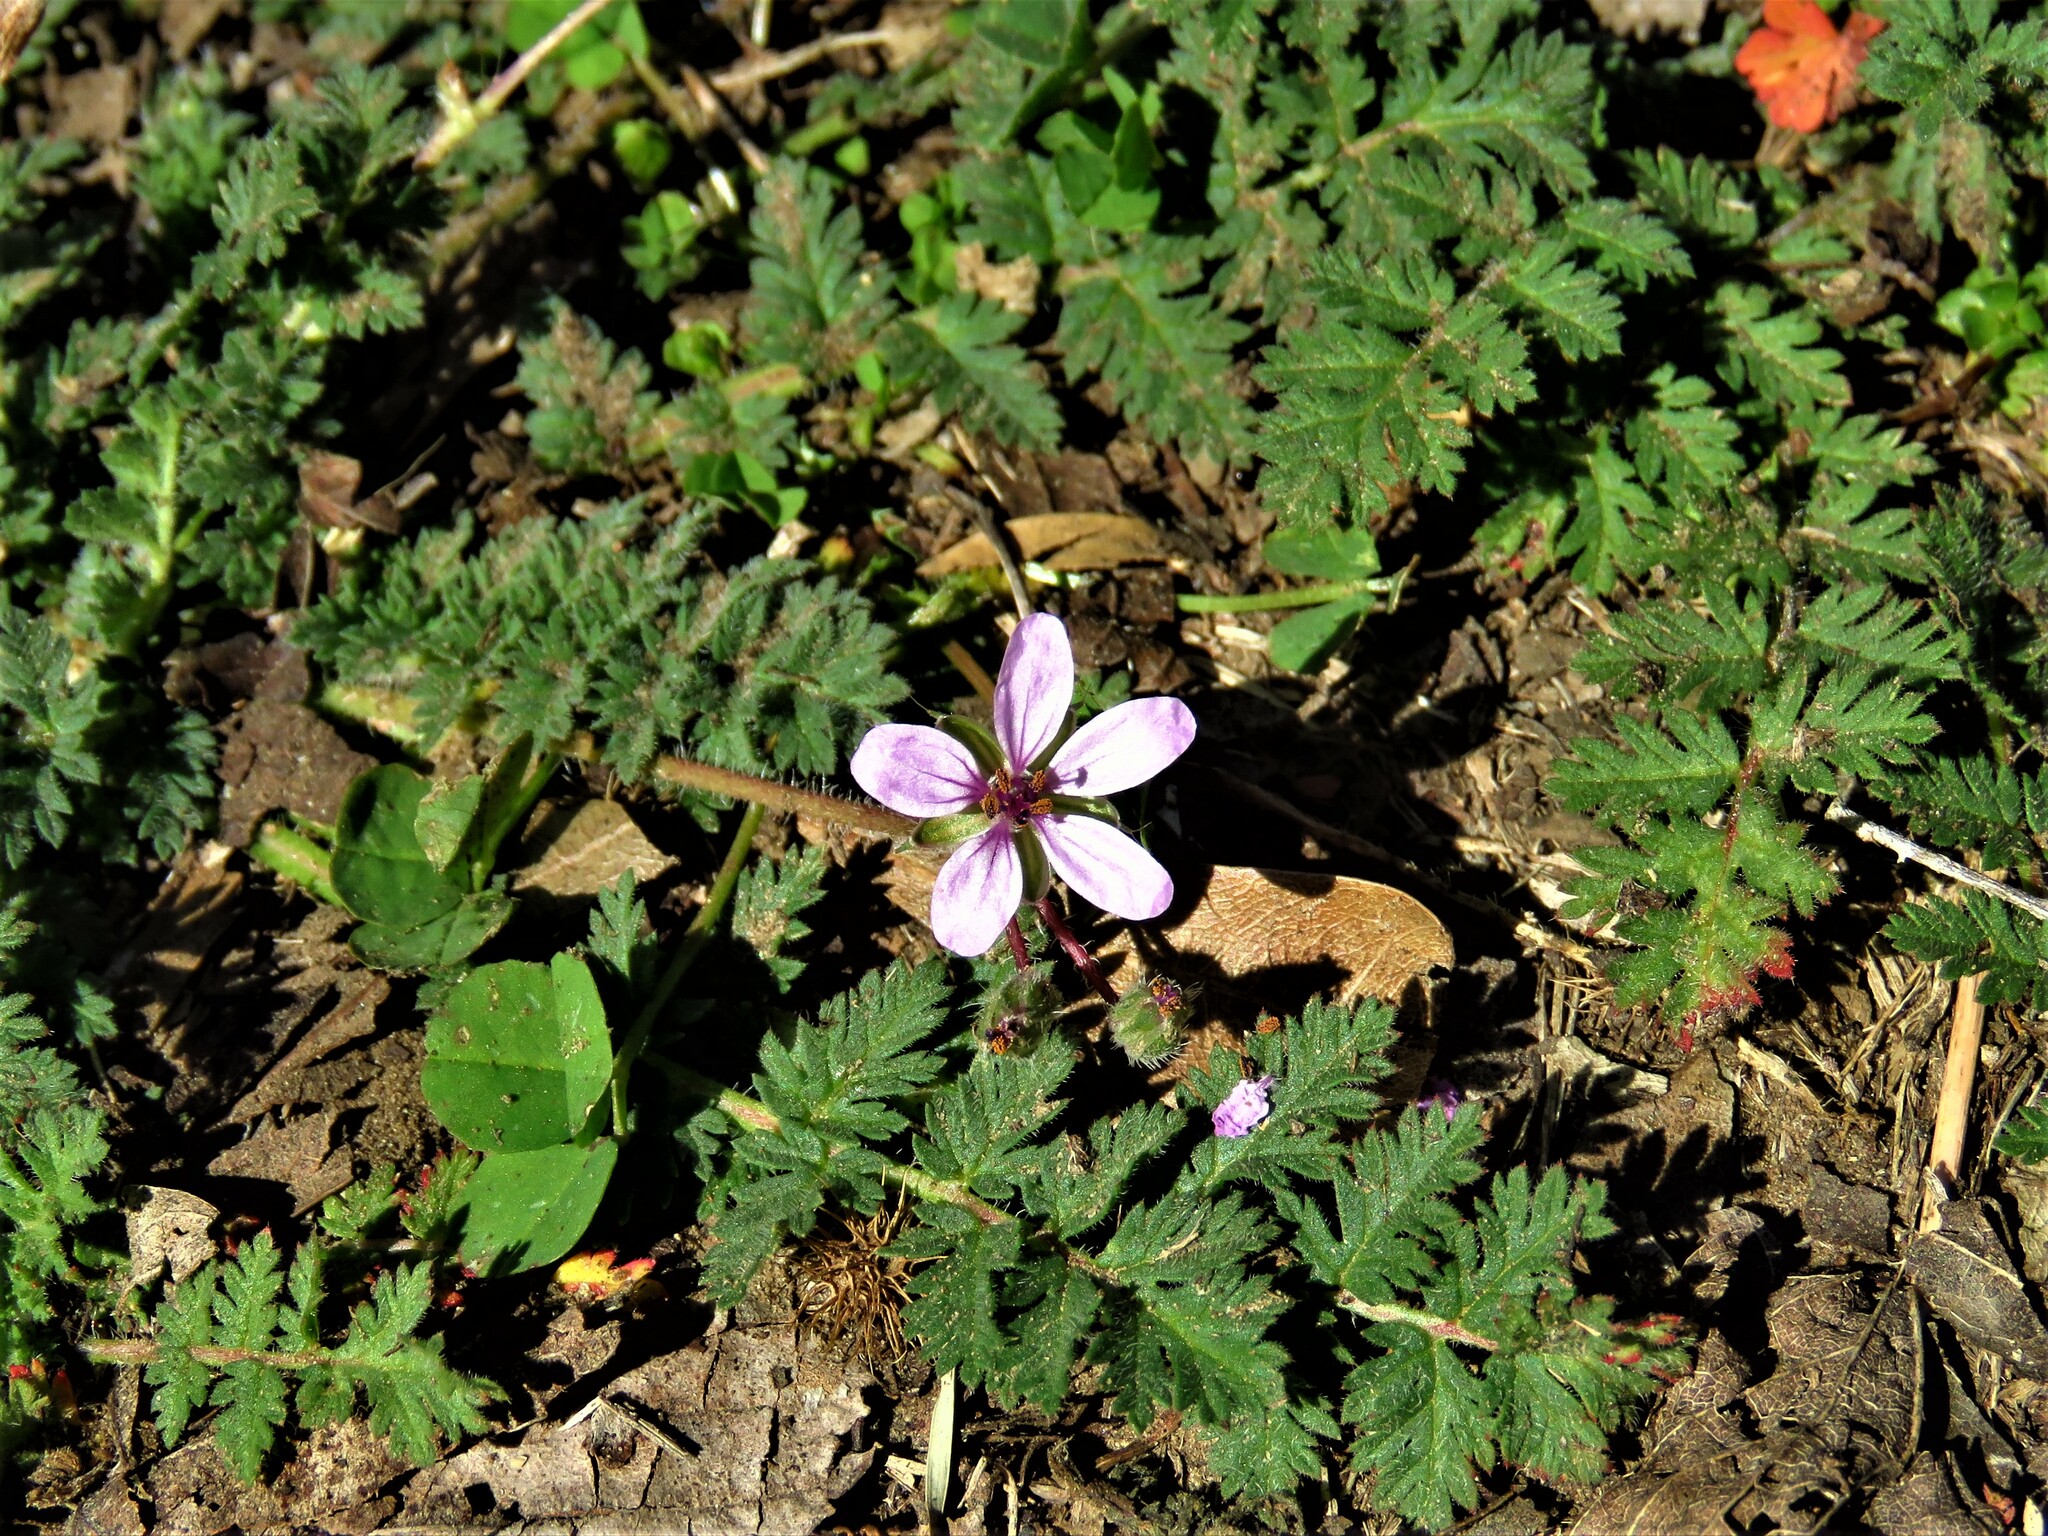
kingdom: Plantae
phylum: Tracheophyta
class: Magnoliopsida
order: Geraniales
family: Geraniaceae
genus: Erodium
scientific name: Erodium cicutarium
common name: Common stork's-bill
